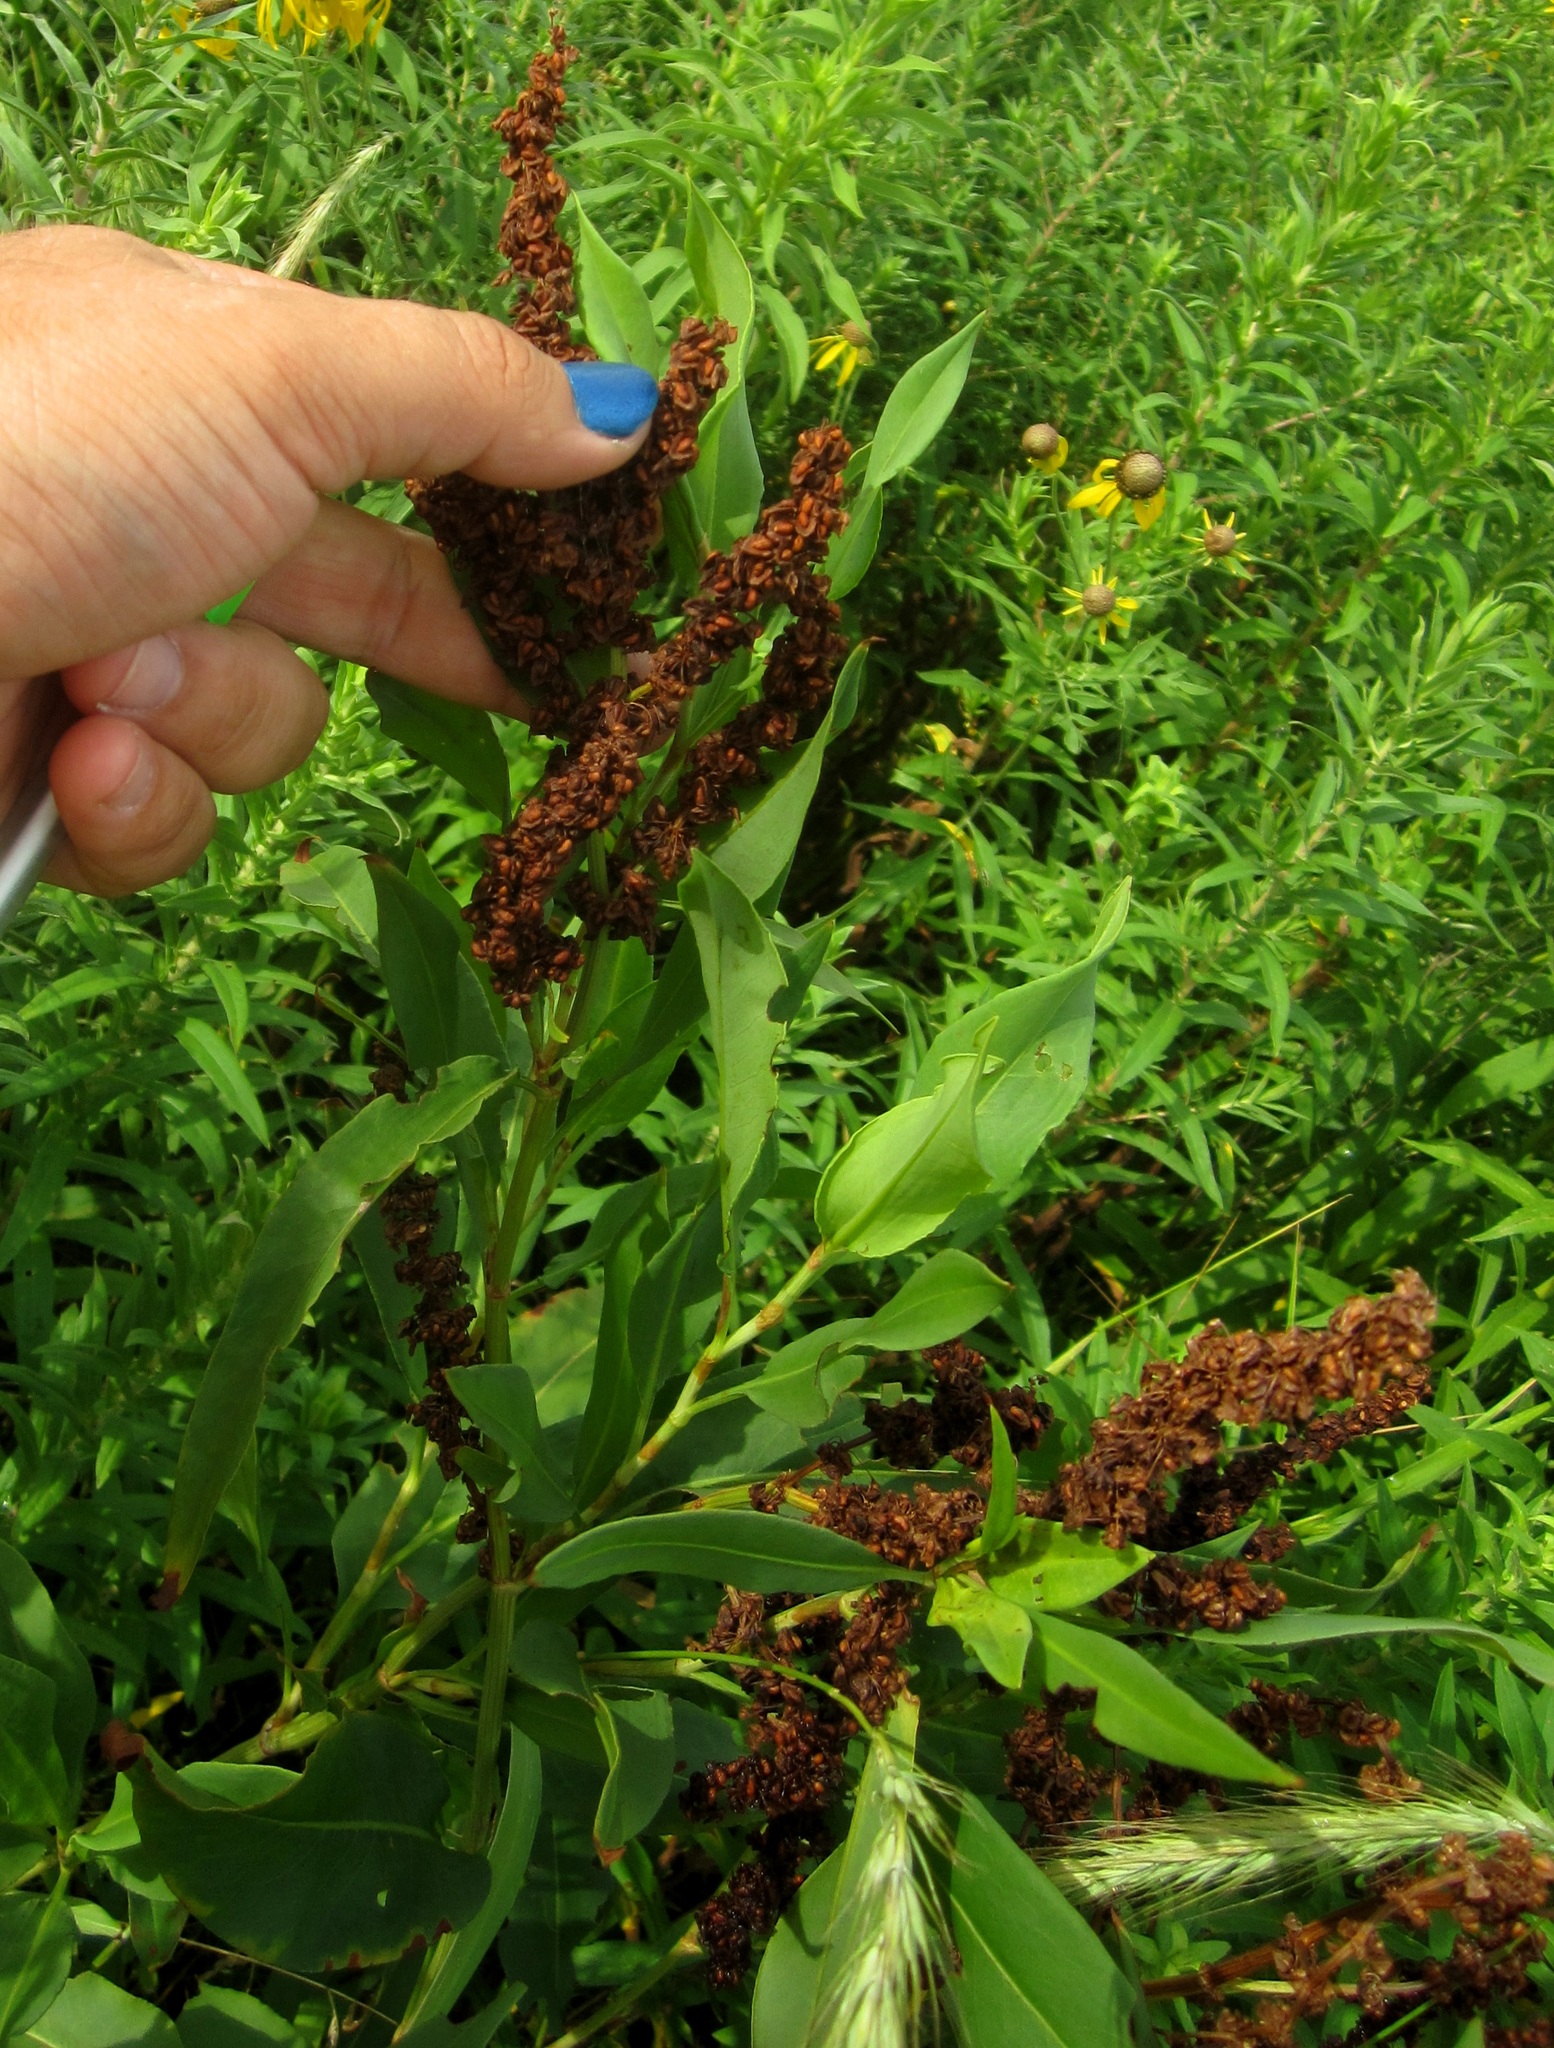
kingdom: Plantae
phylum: Tracheophyta
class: Magnoliopsida
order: Caryophyllales
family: Polygonaceae
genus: Rumex
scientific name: Rumex triangulivalvis
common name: Triangular-valve dock
